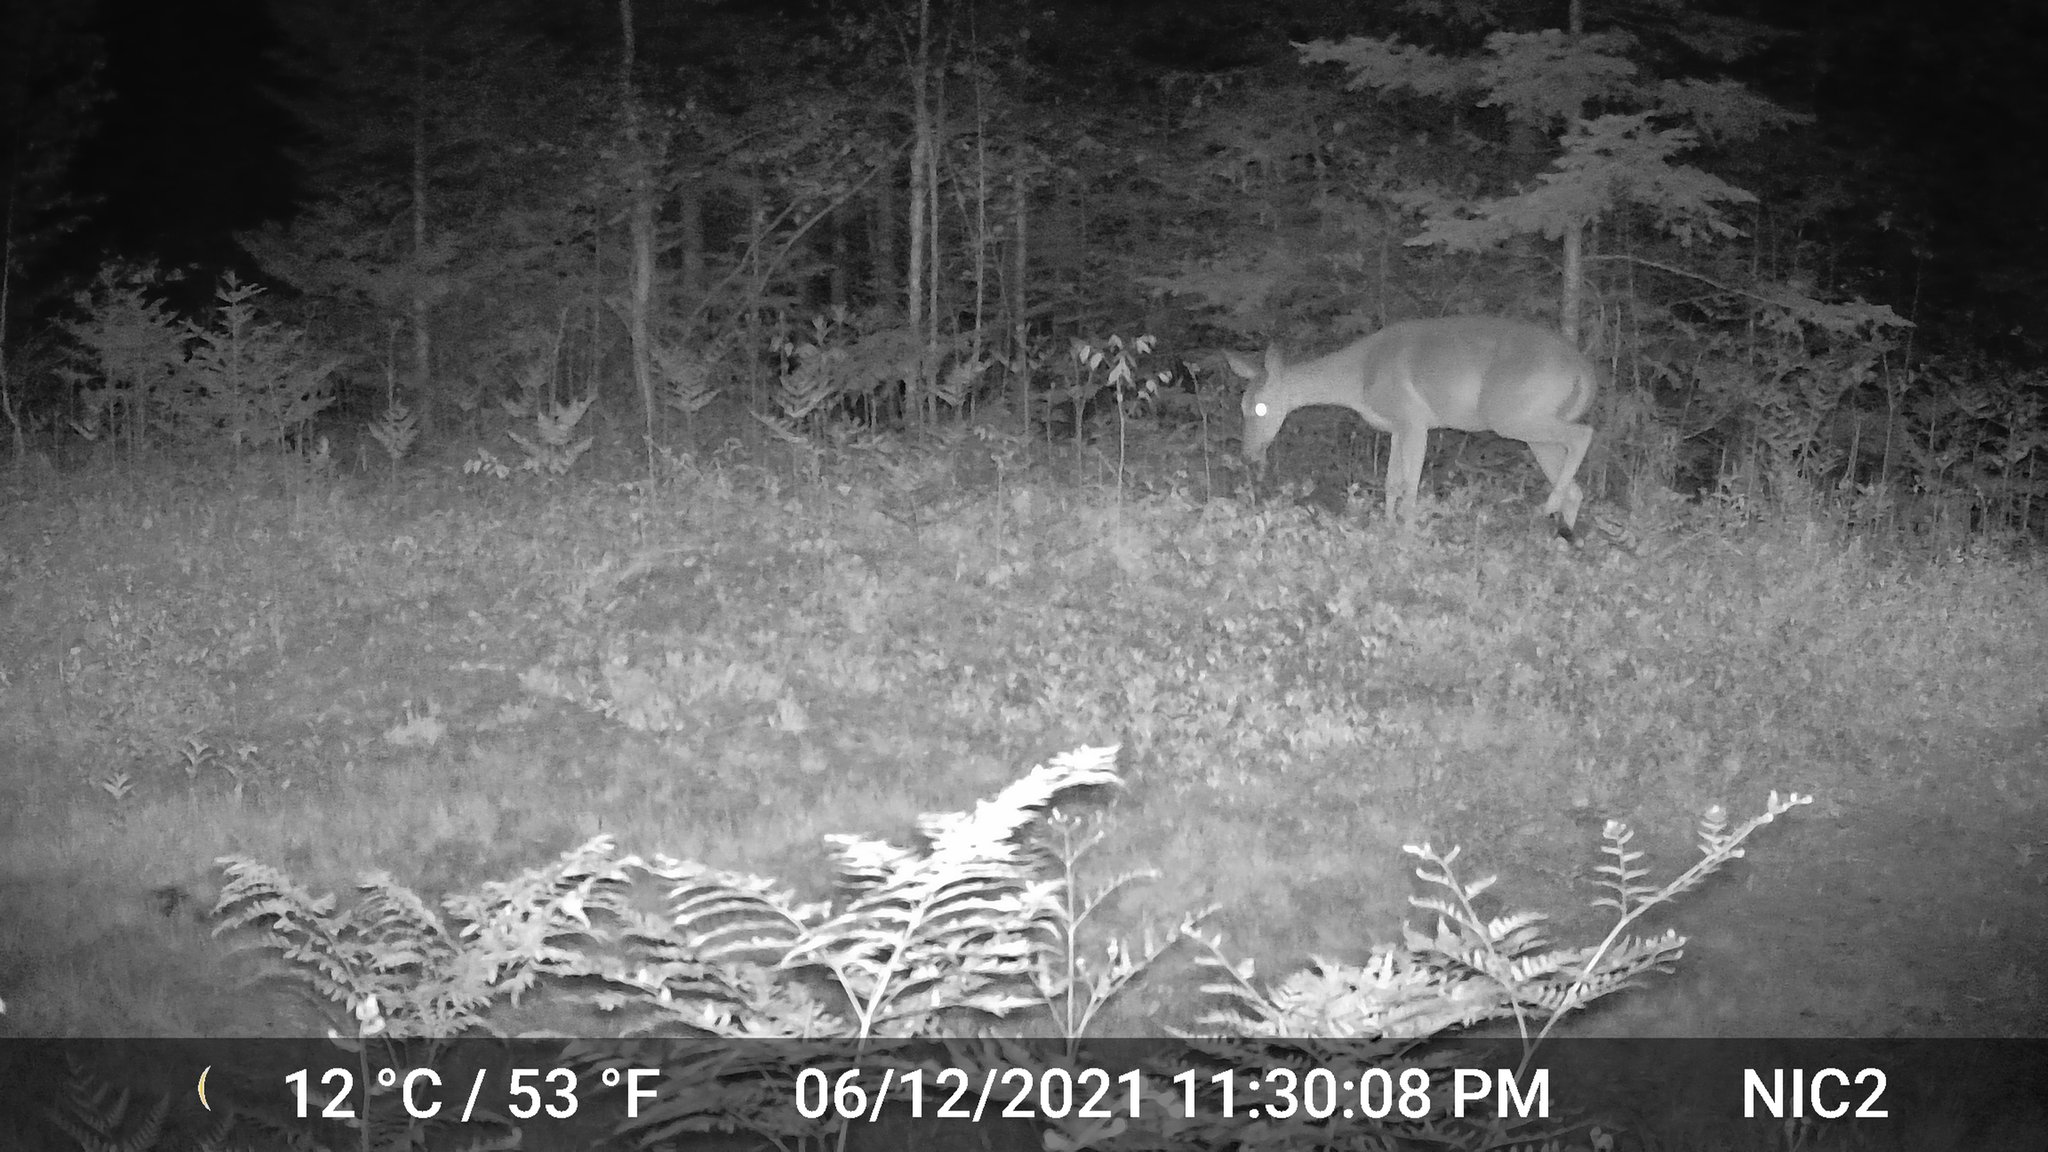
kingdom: Animalia
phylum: Chordata
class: Mammalia
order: Artiodactyla
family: Cervidae
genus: Odocoileus
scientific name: Odocoileus virginianus
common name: White-tailed deer
